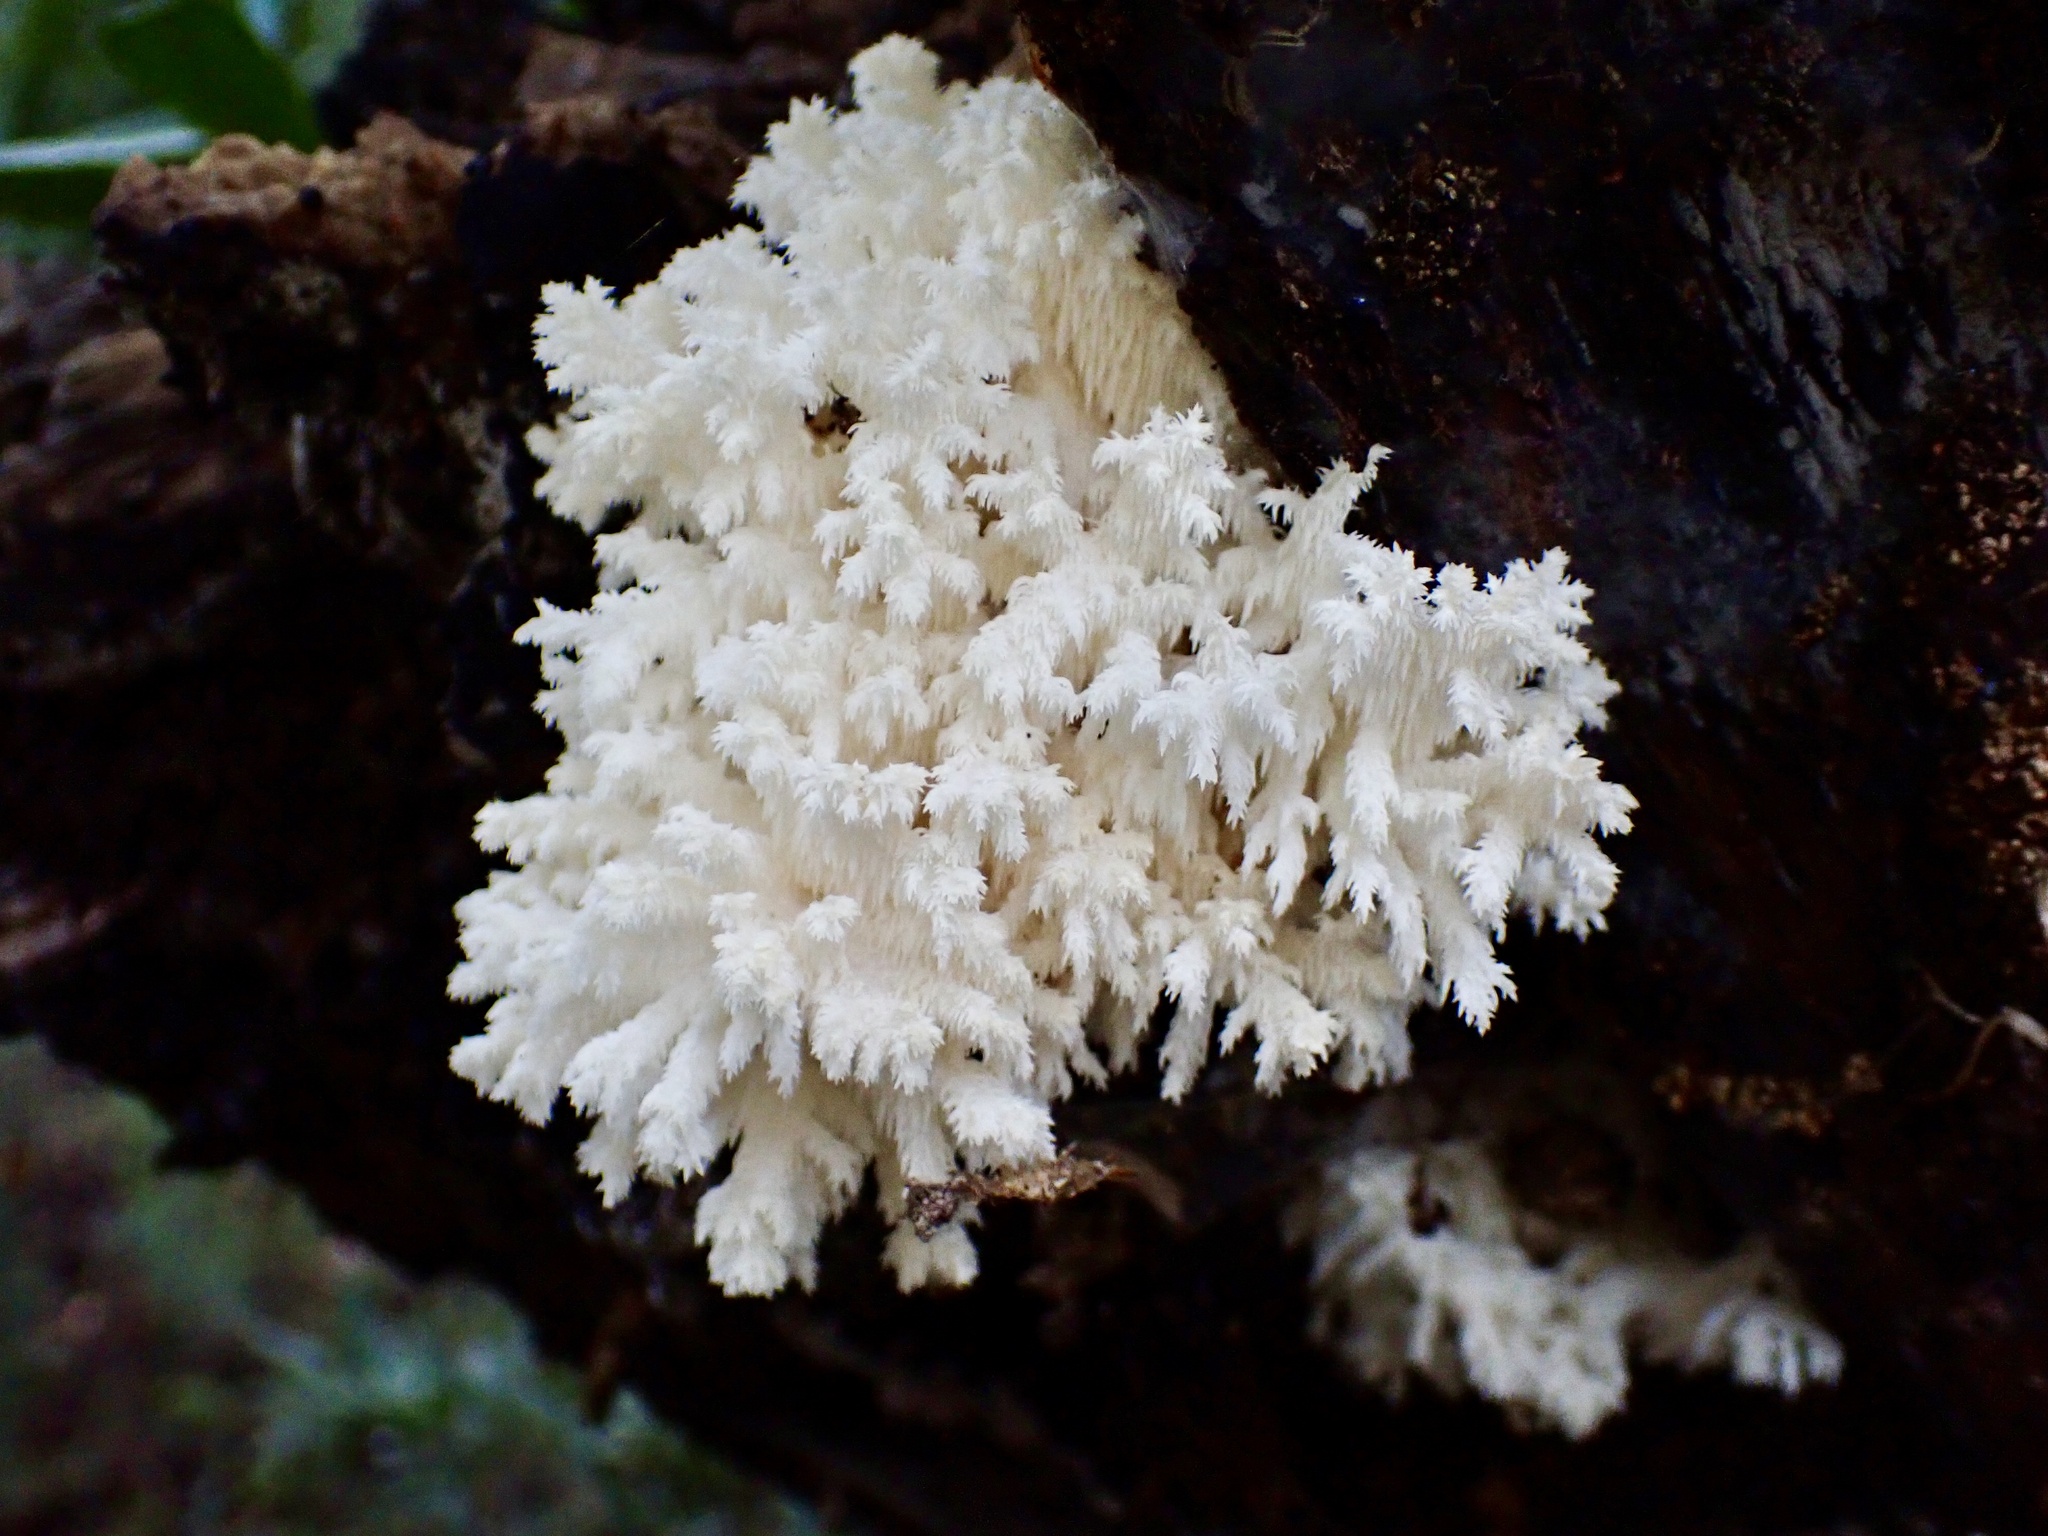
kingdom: Fungi
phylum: Basidiomycota
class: Agaricomycetes
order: Russulales
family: Hericiaceae
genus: Hericium
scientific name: Hericium coralloides
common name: Coral tooth
